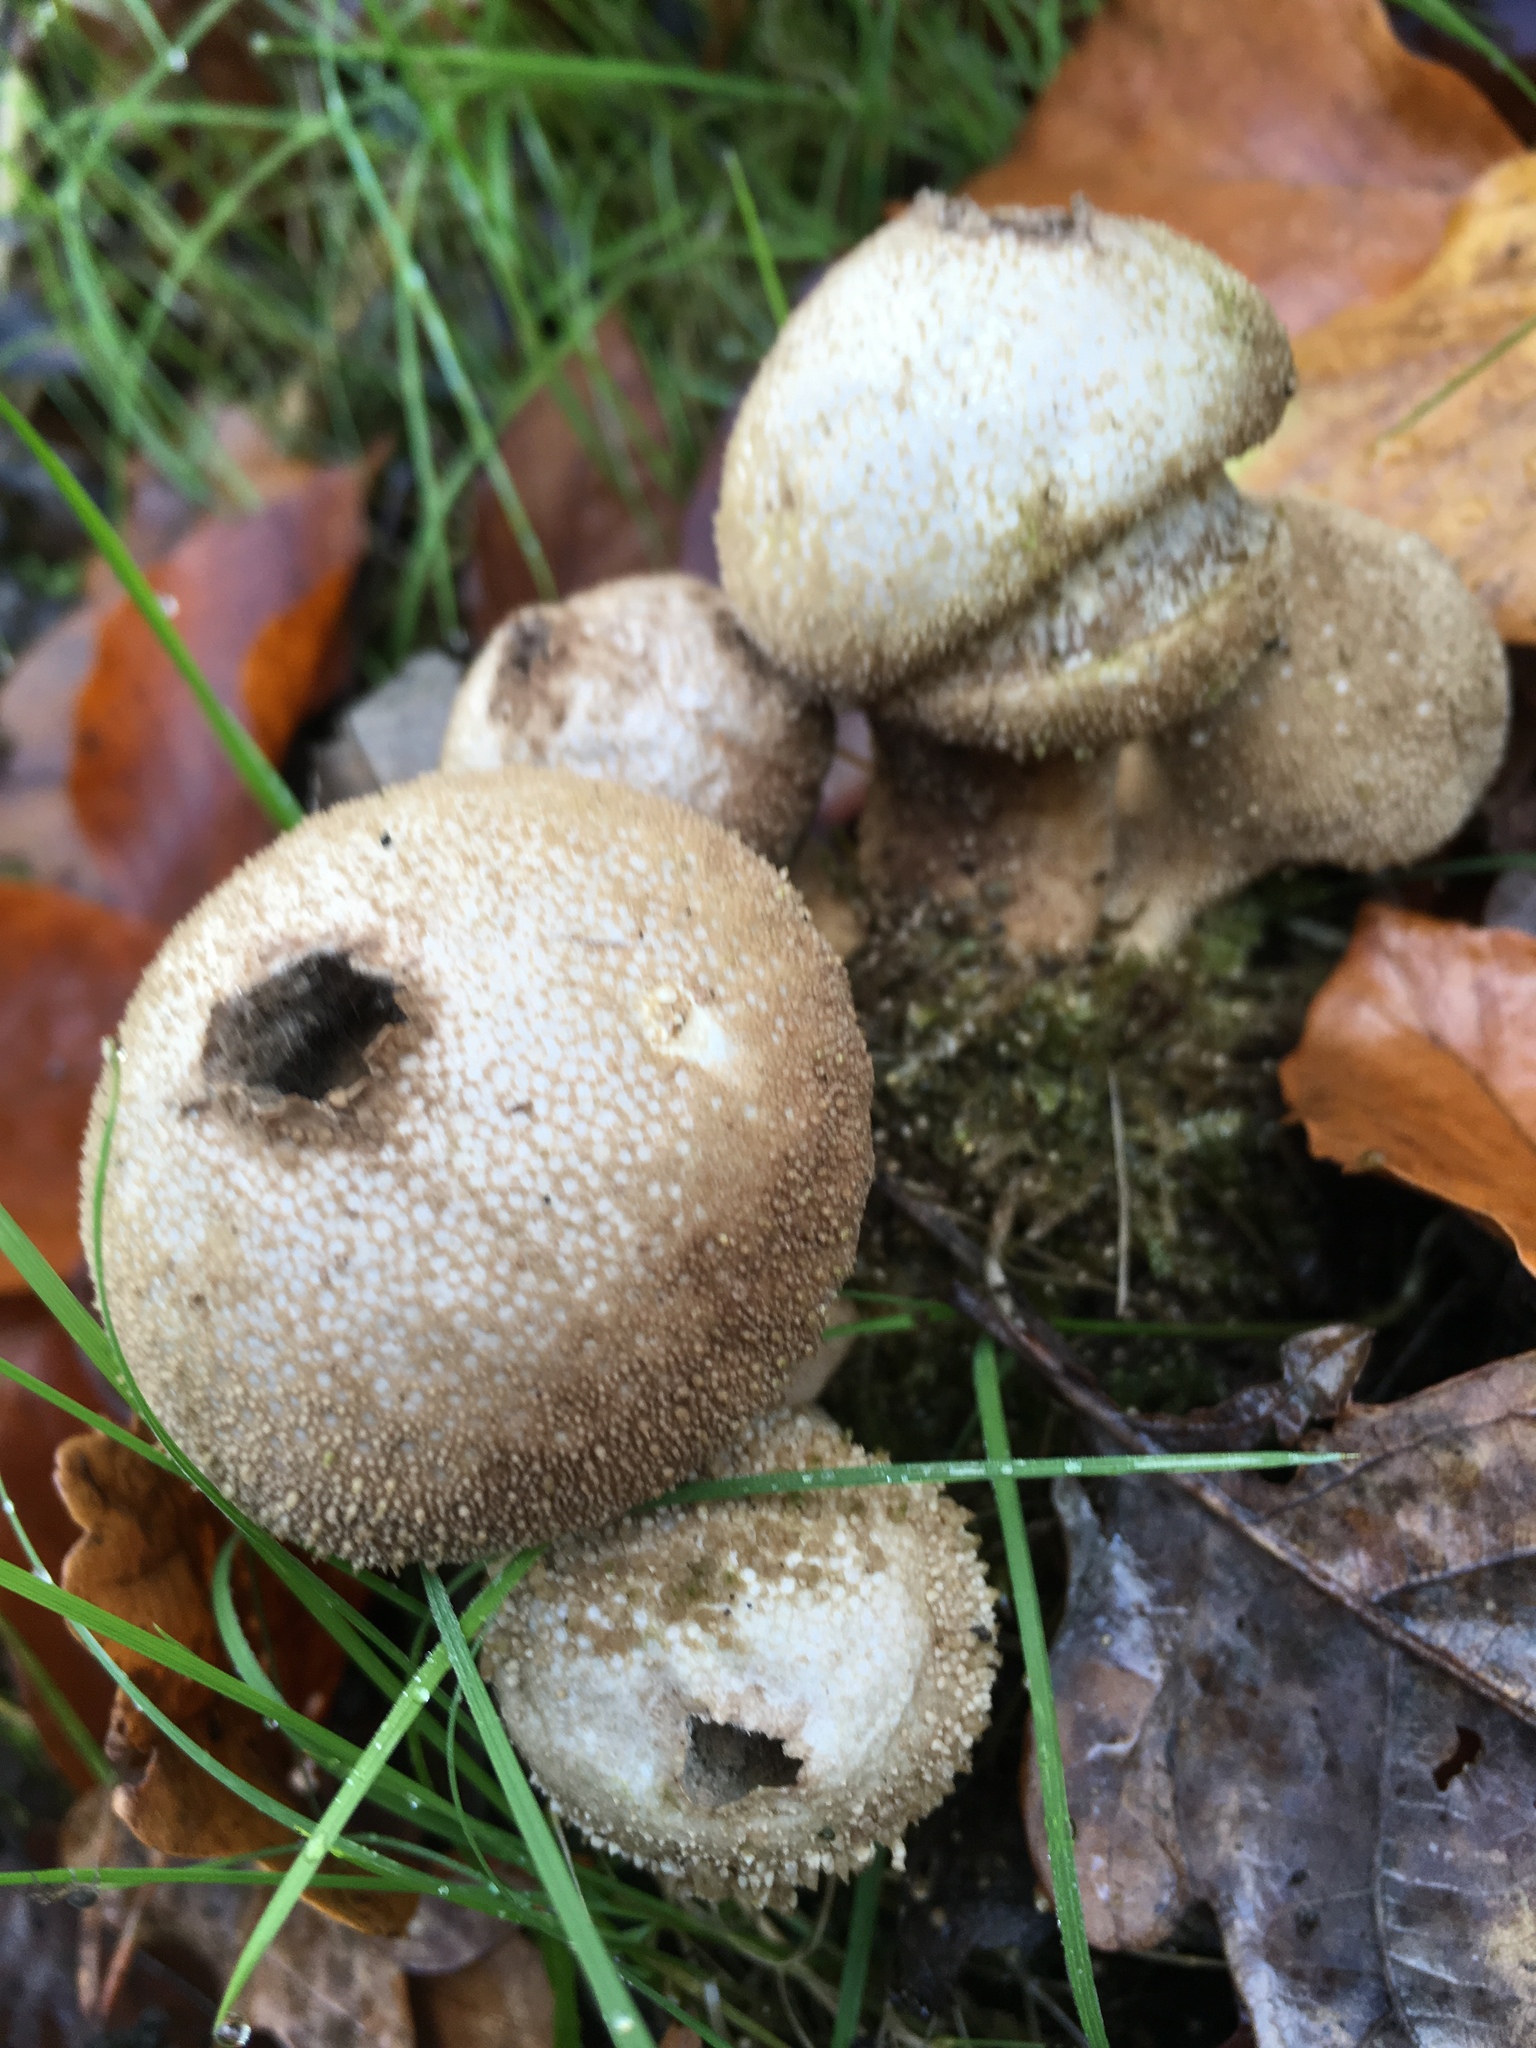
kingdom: Fungi
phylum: Basidiomycota
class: Agaricomycetes
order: Agaricales
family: Lycoperdaceae
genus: Lycoperdon
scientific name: Lycoperdon perlatum
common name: Common puffball
